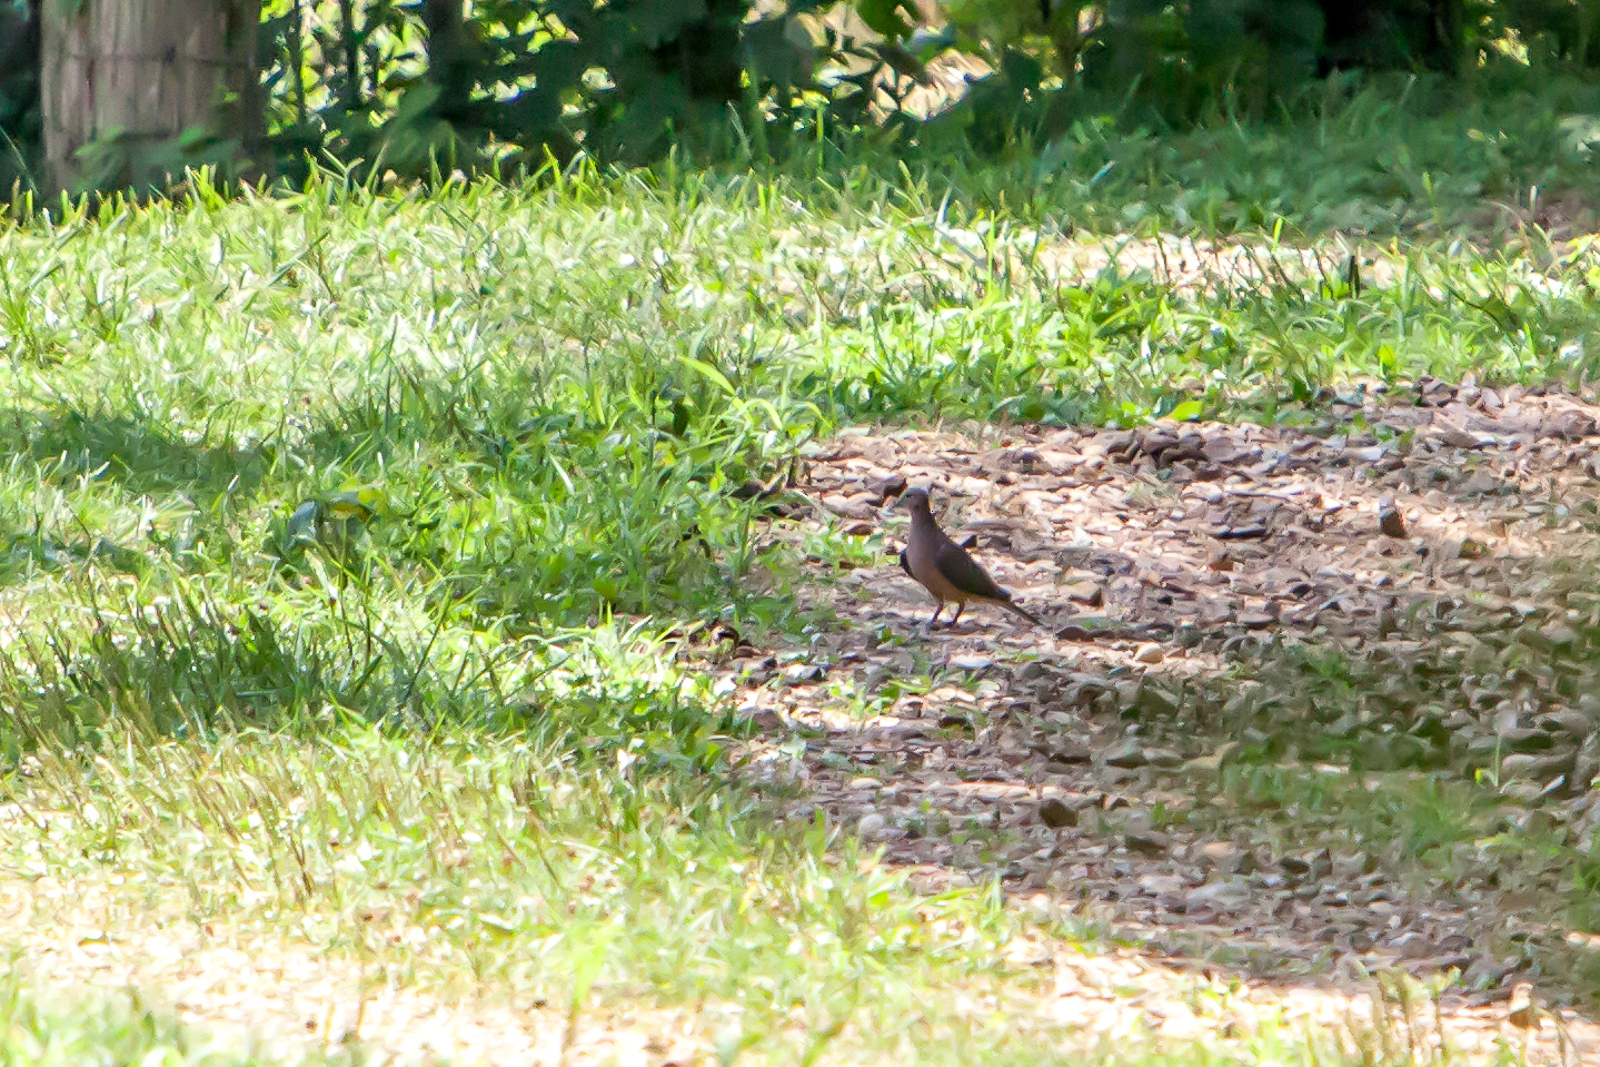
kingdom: Animalia
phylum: Chordata
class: Aves
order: Columbiformes
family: Columbidae
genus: Zenaida
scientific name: Zenaida macroura
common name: Mourning dove
